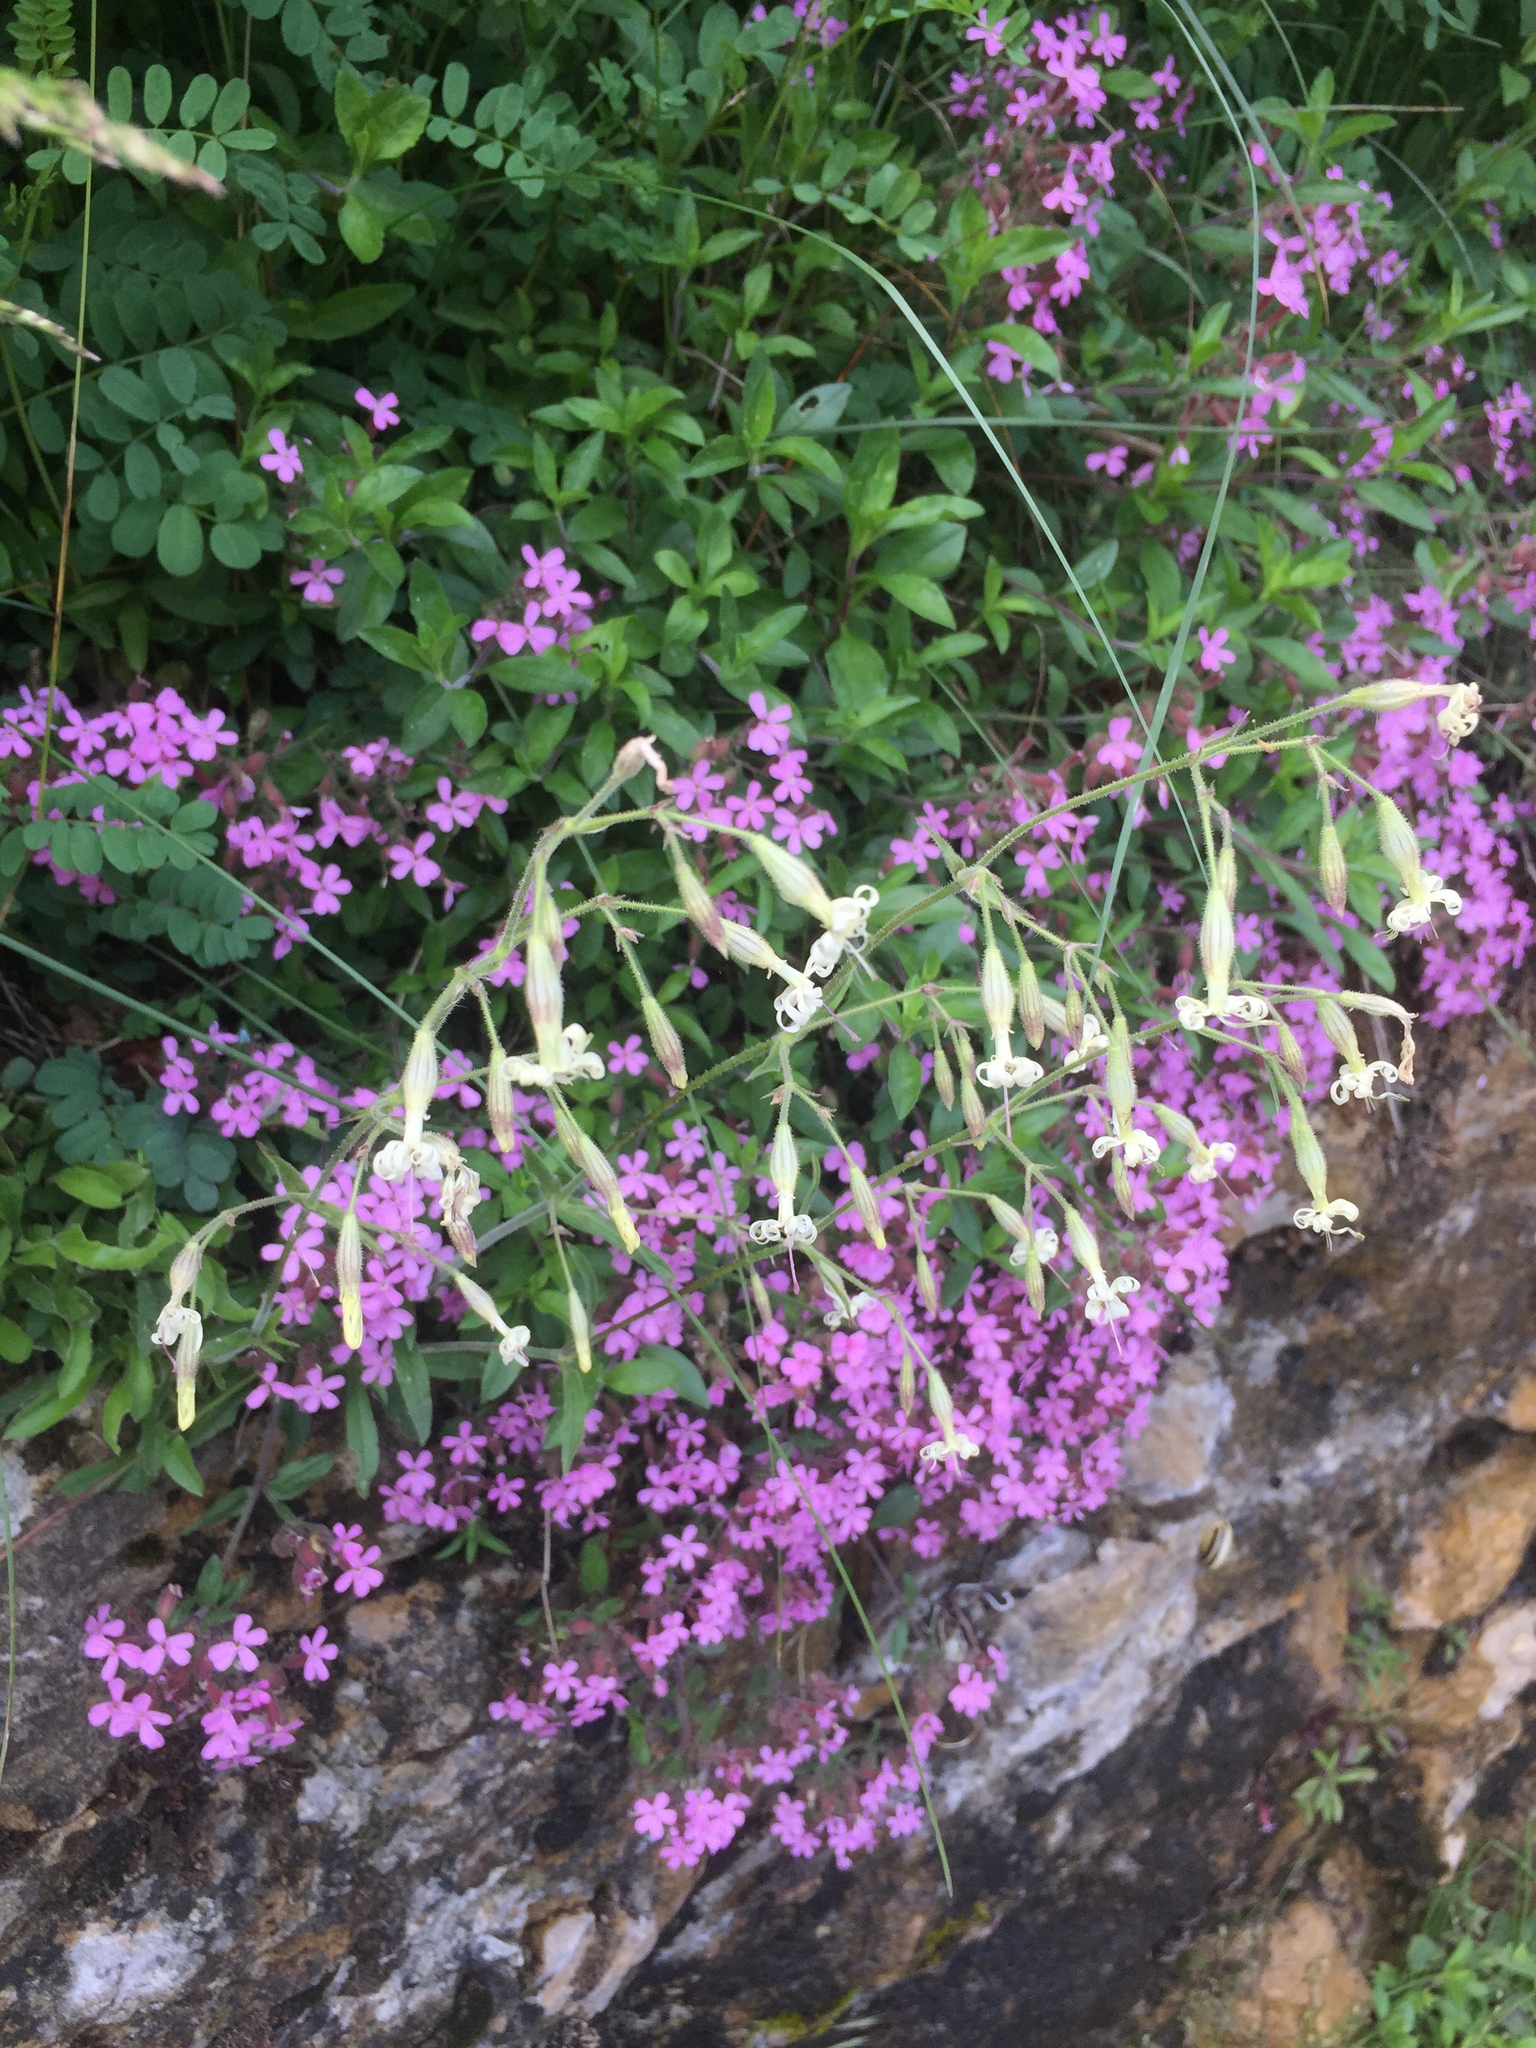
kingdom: Plantae
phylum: Tracheophyta
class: Magnoliopsida
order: Caryophyllales
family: Caryophyllaceae
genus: Silene
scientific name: Silene nutans
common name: Nottingham catchfly
